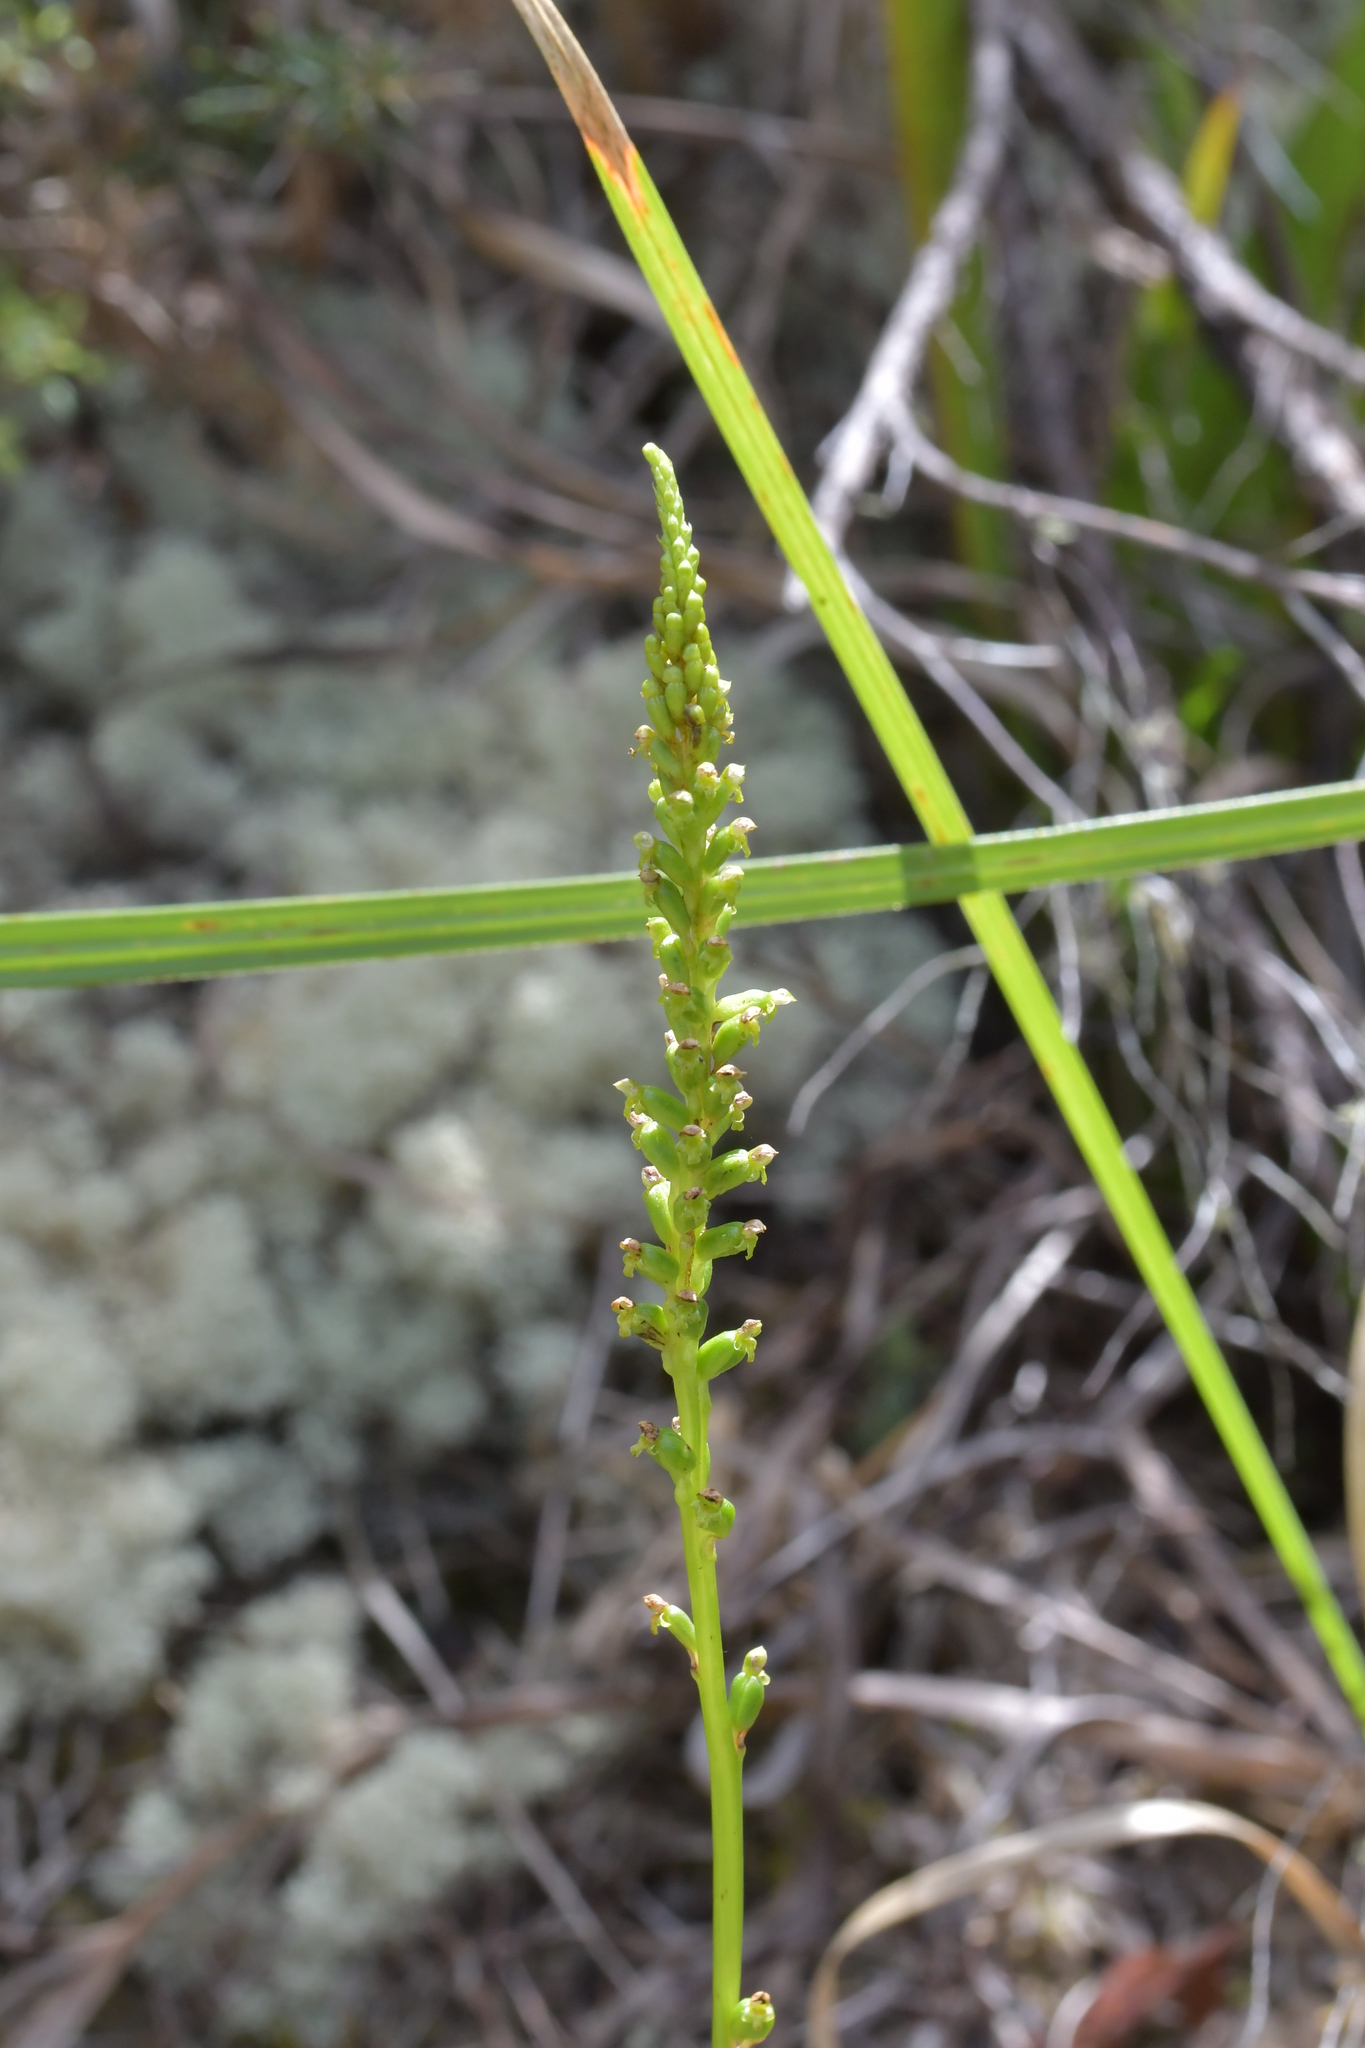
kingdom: Plantae
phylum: Tracheophyta
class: Liliopsida
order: Asparagales
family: Orchidaceae
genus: Microtis
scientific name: Microtis unifolia
